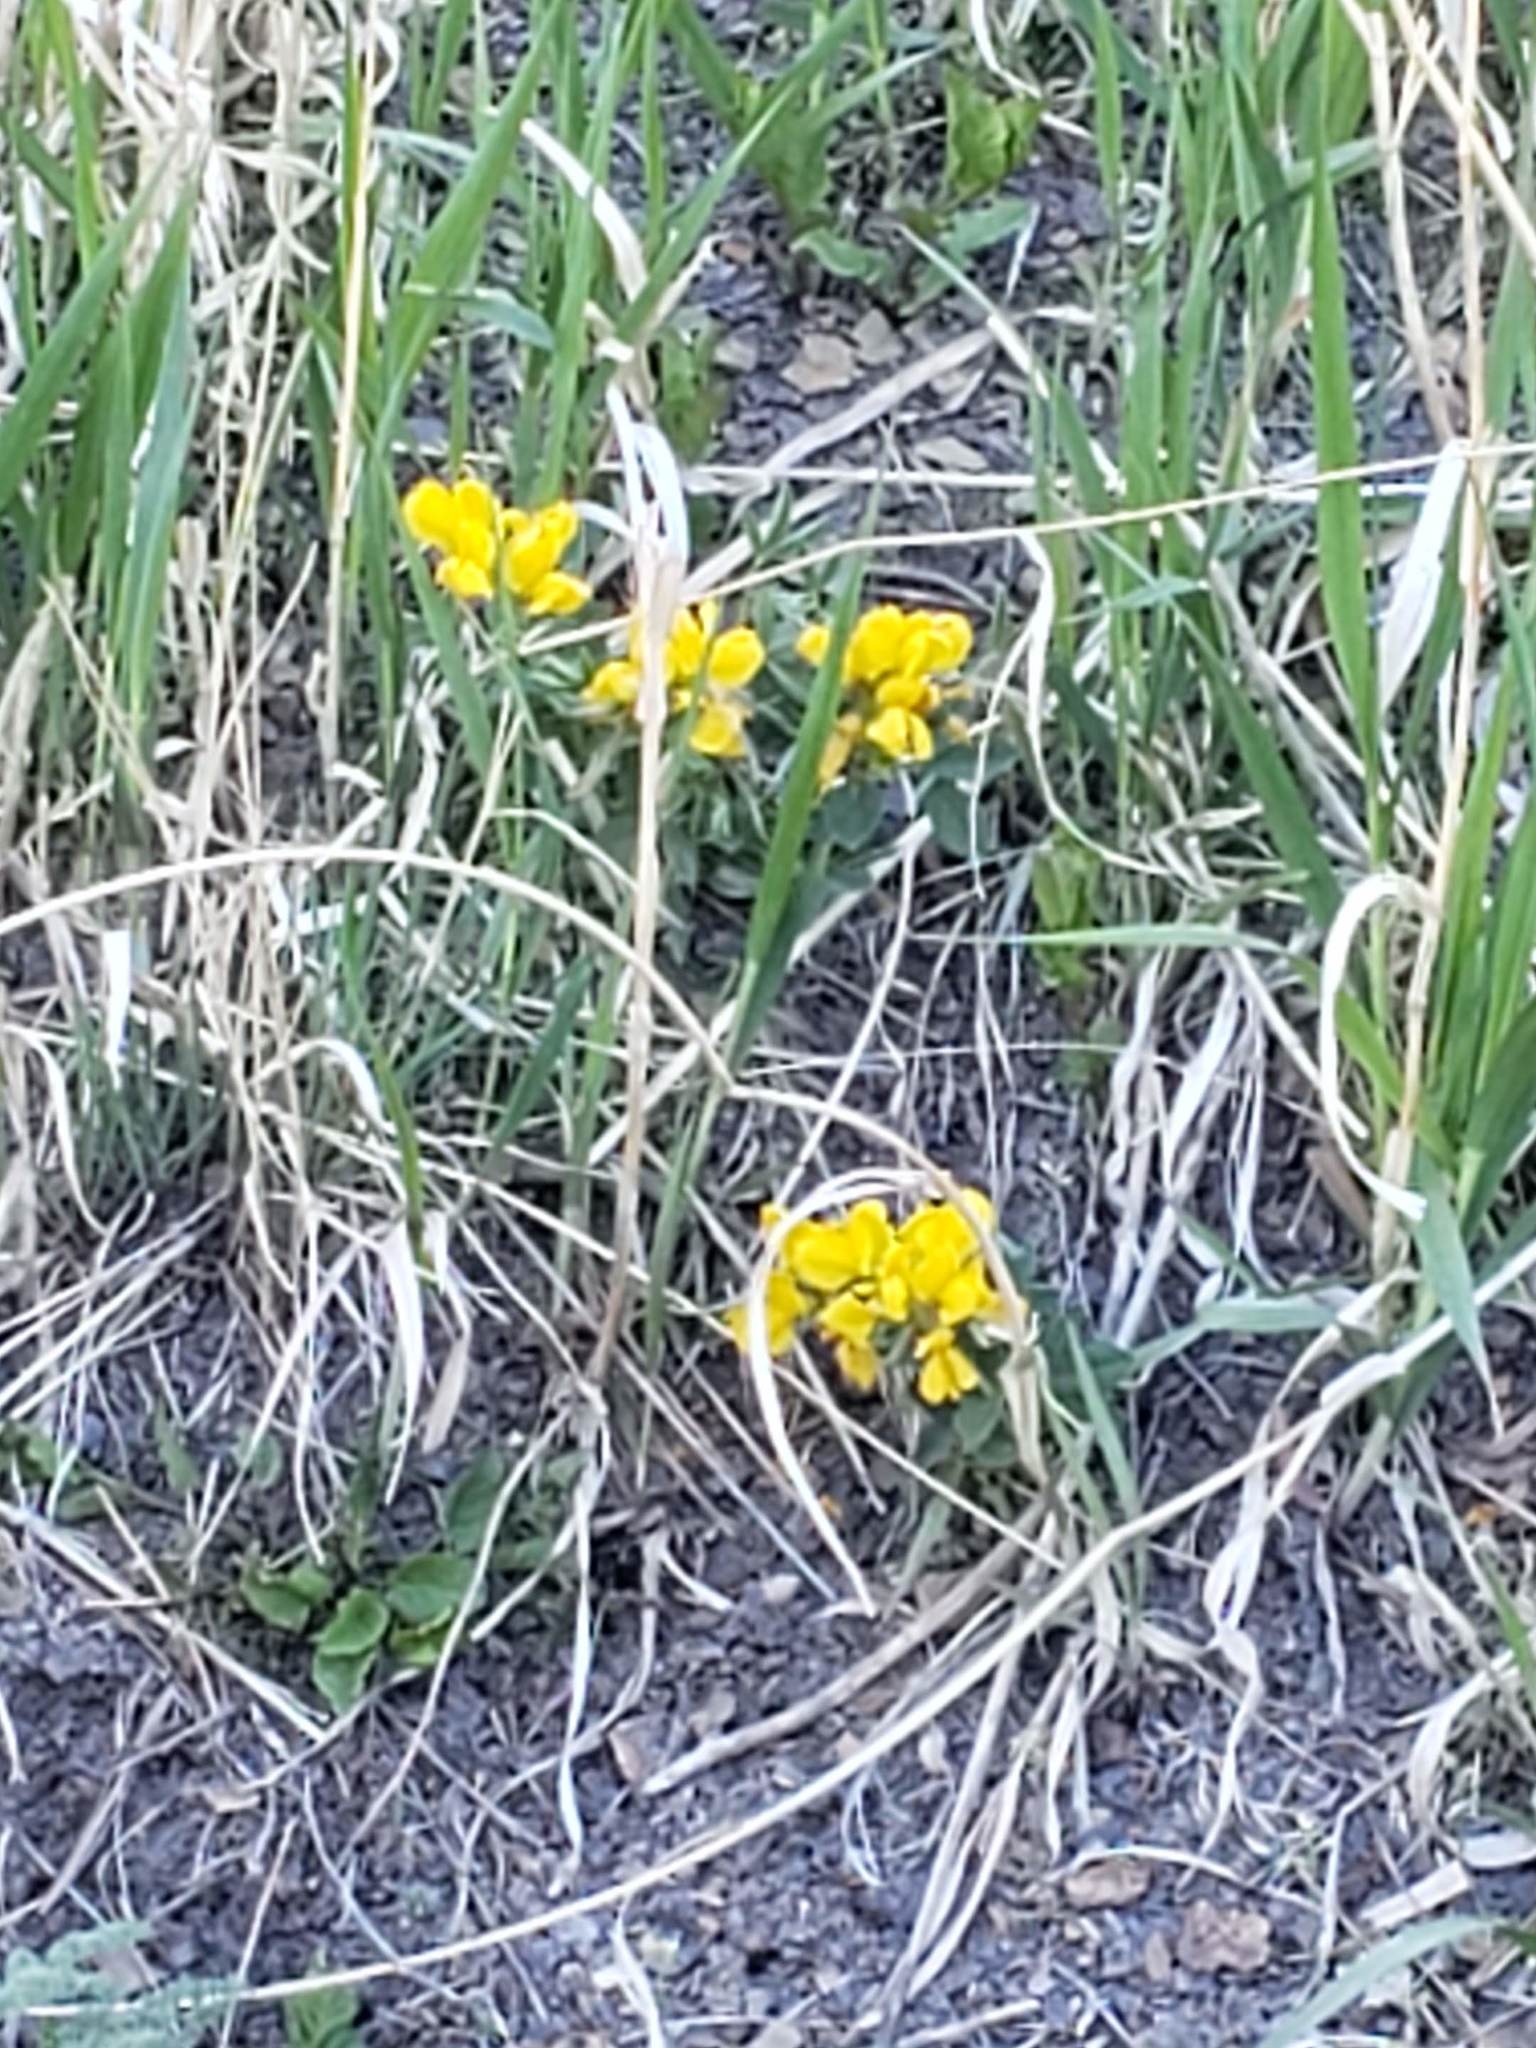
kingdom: Plantae
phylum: Tracheophyta
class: Magnoliopsida
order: Fabales
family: Fabaceae
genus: Thermopsis
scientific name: Thermopsis rhombifolia
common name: Circle-pod-pea
